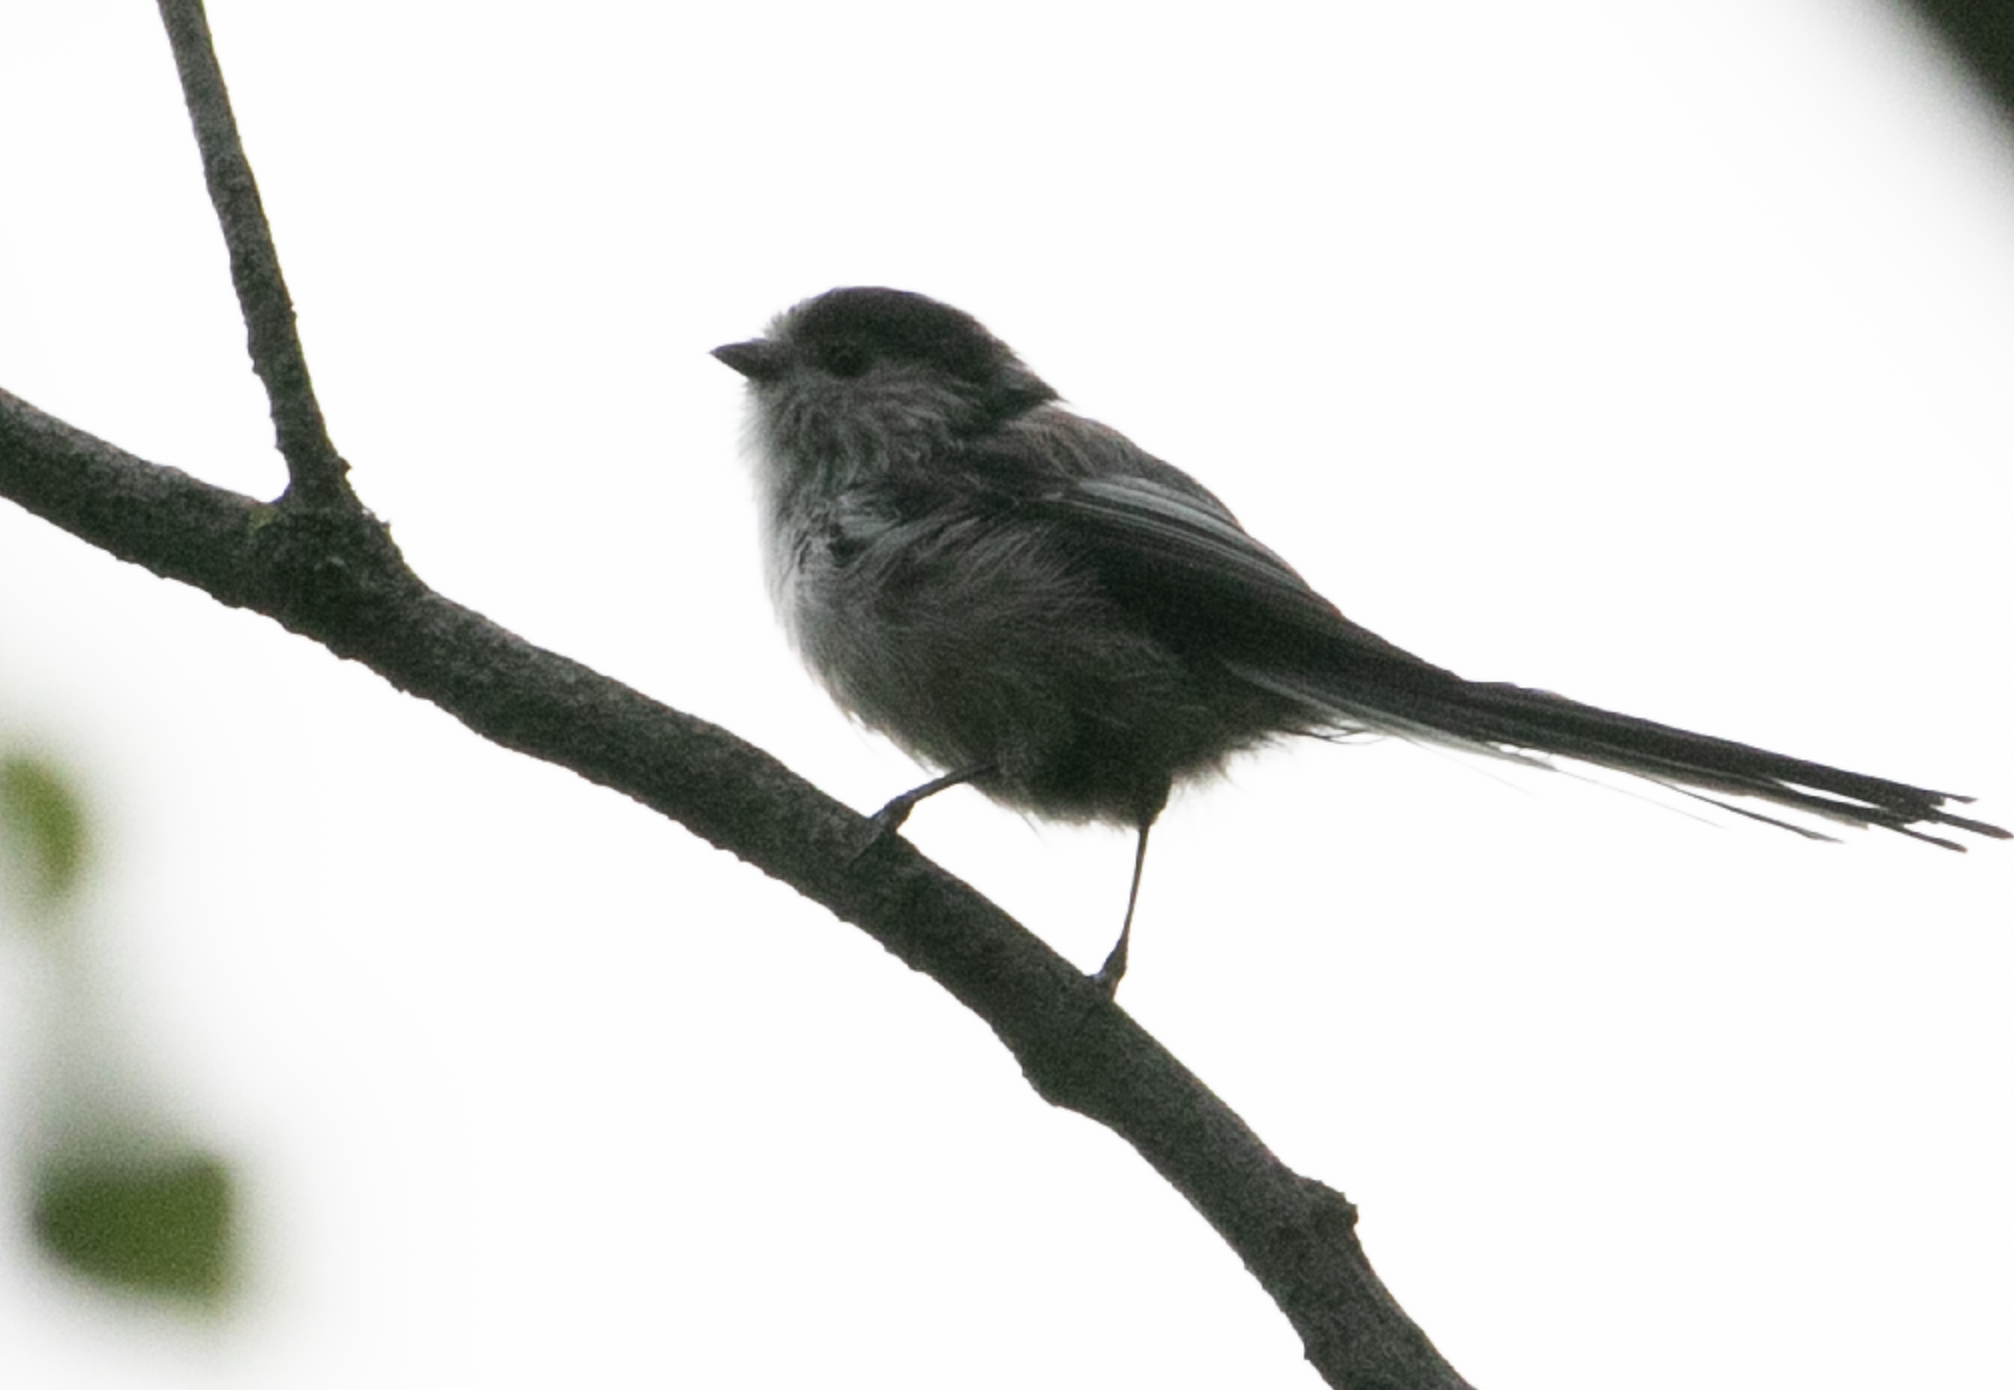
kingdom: Animalia
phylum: Chordata
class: Aves
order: Passeriformes
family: Aegithalidae
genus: Aegithalos
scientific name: Aegithalos caudatus
